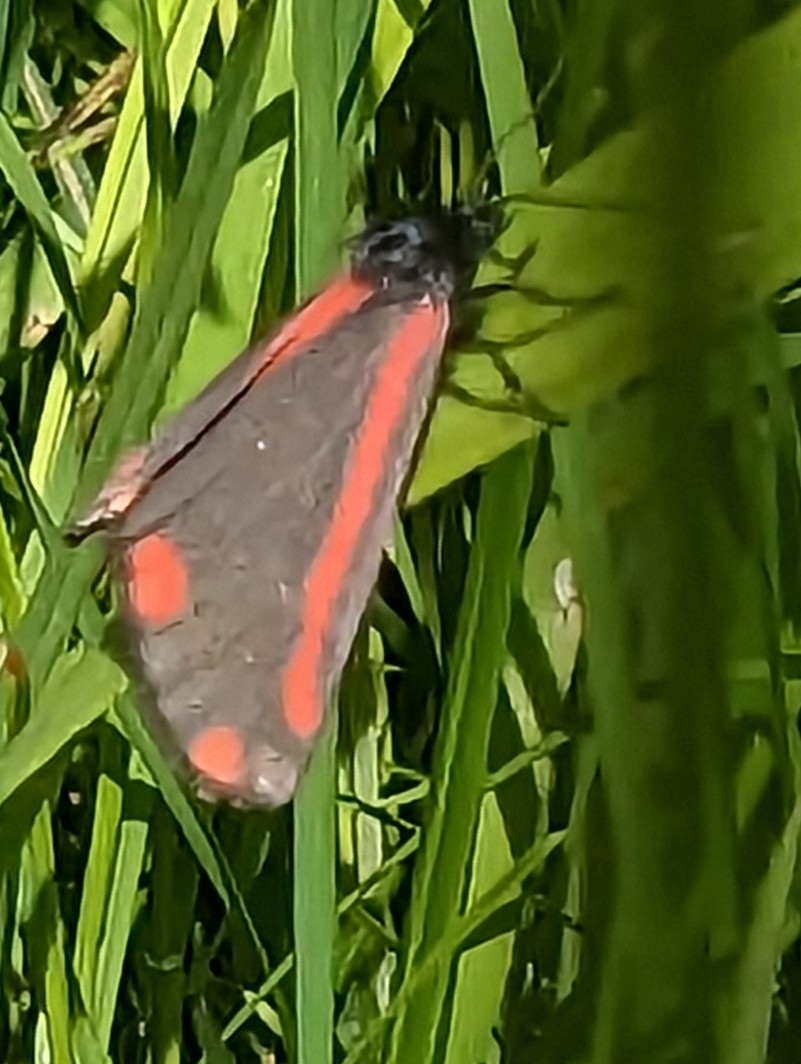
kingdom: Animalia
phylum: Arthropoda
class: Insecta
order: Lepidoptera
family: Erebidae
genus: Tyria
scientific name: Tyria jacobaeae
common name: Cinnabar
